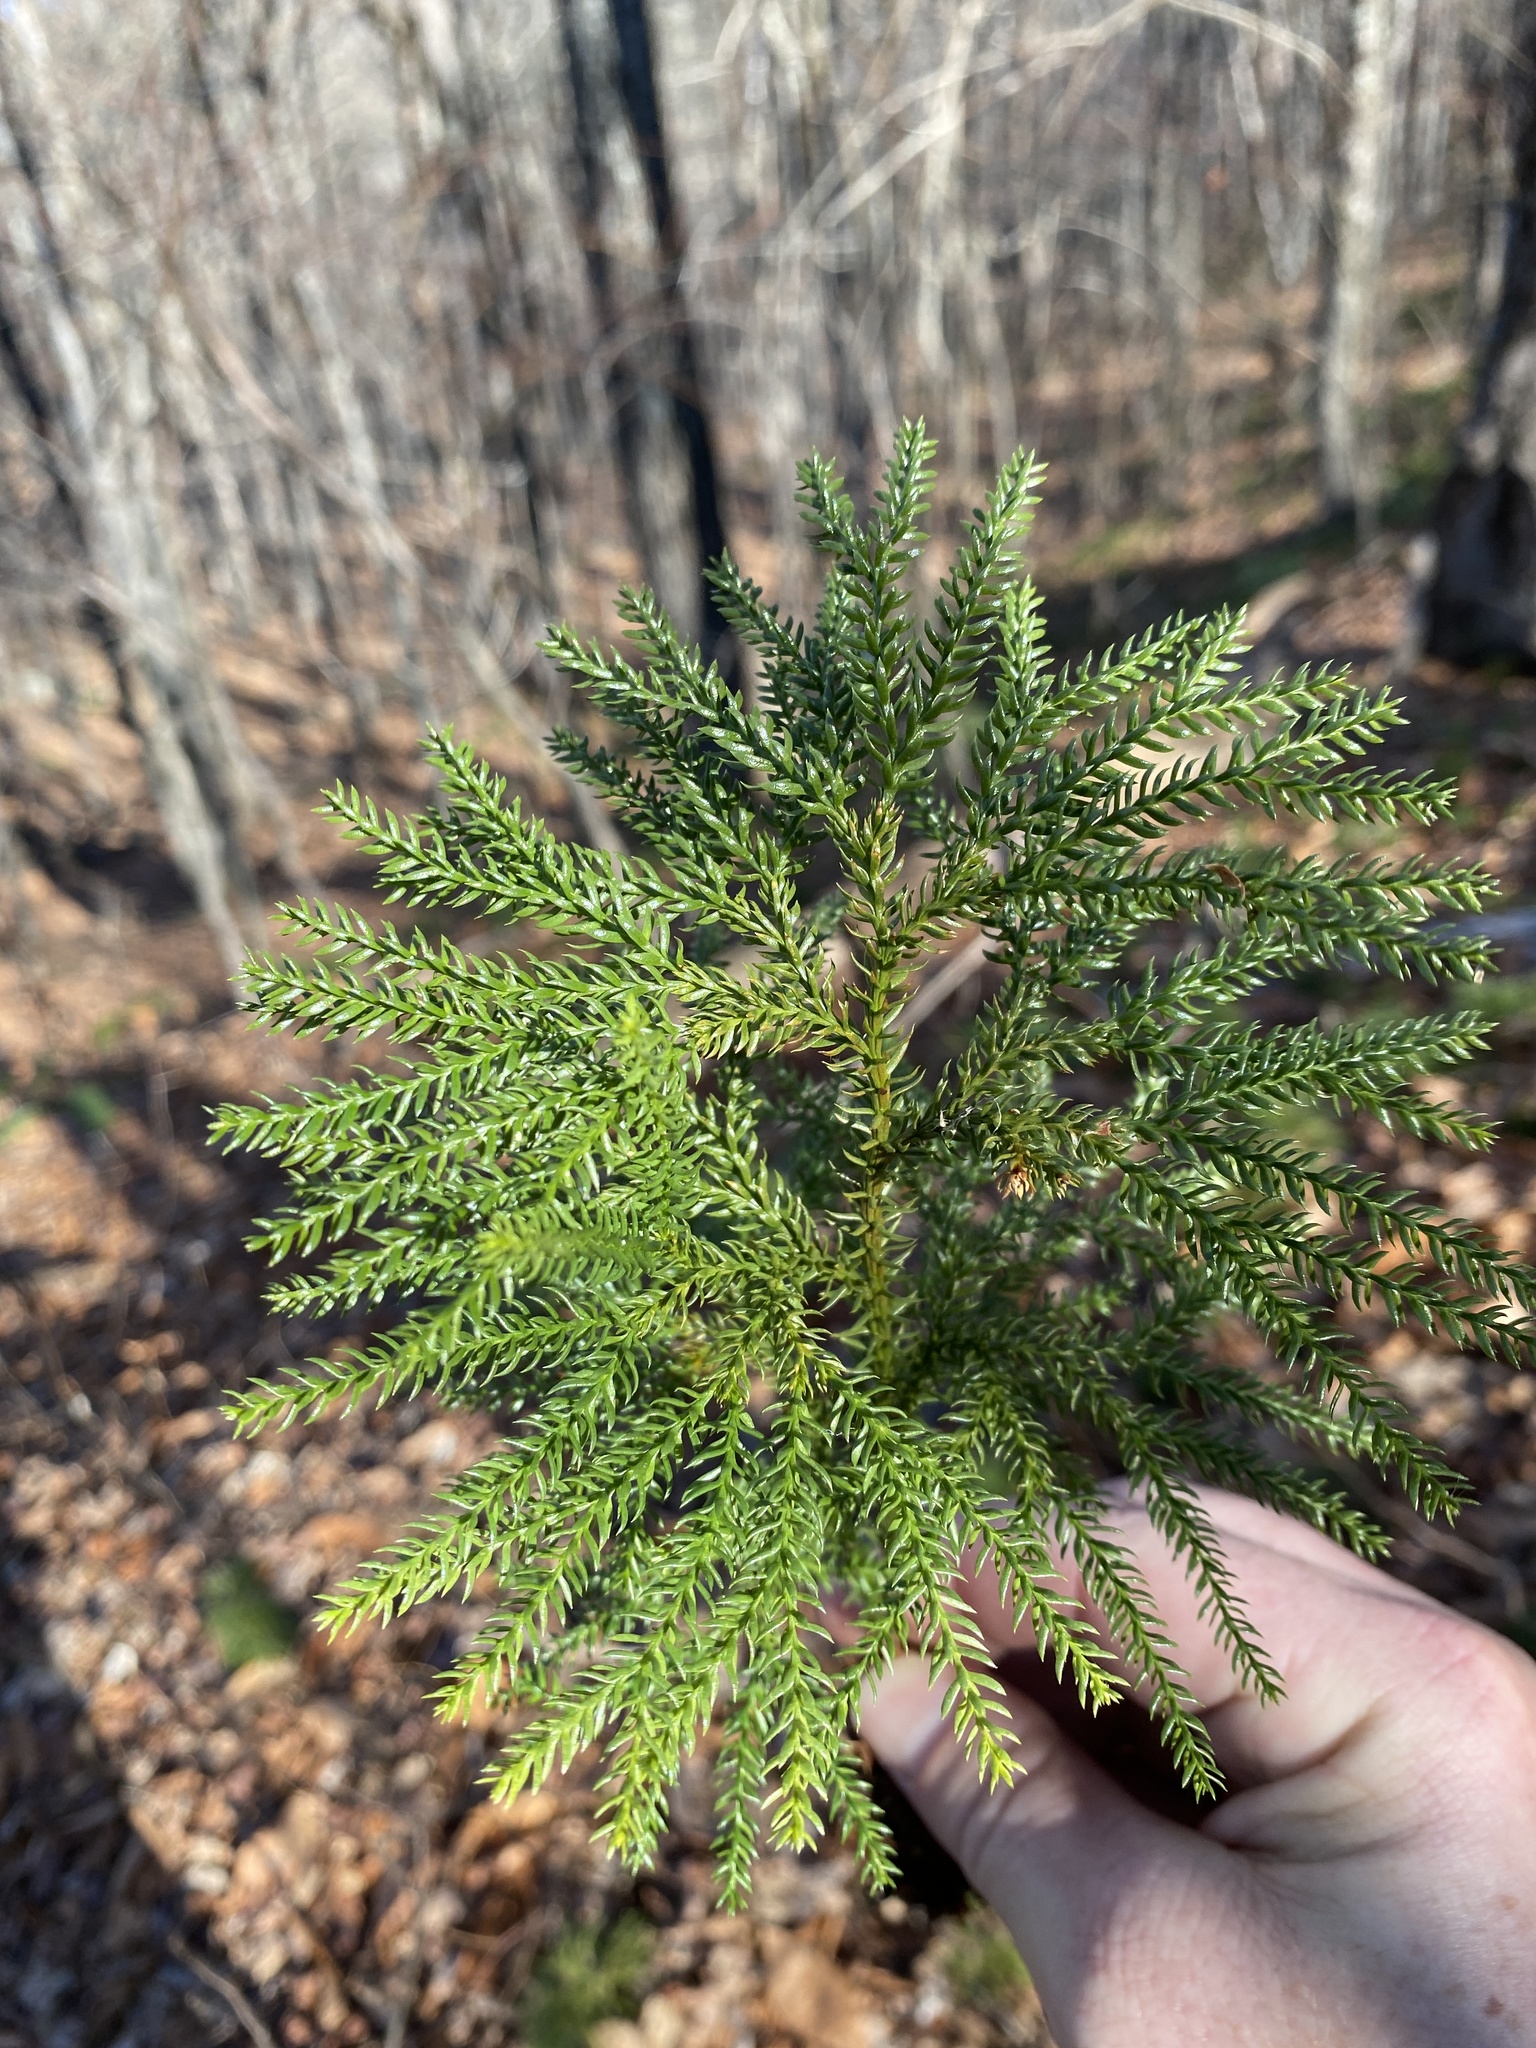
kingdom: Plantae
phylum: Tracheophyta
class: Lycopodiopsida
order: Lycopodiales
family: Lycopodiaceae
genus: Dendrolycopodium
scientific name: Dendrolycopodium dendroideum
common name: Northern tree-clubmoss
